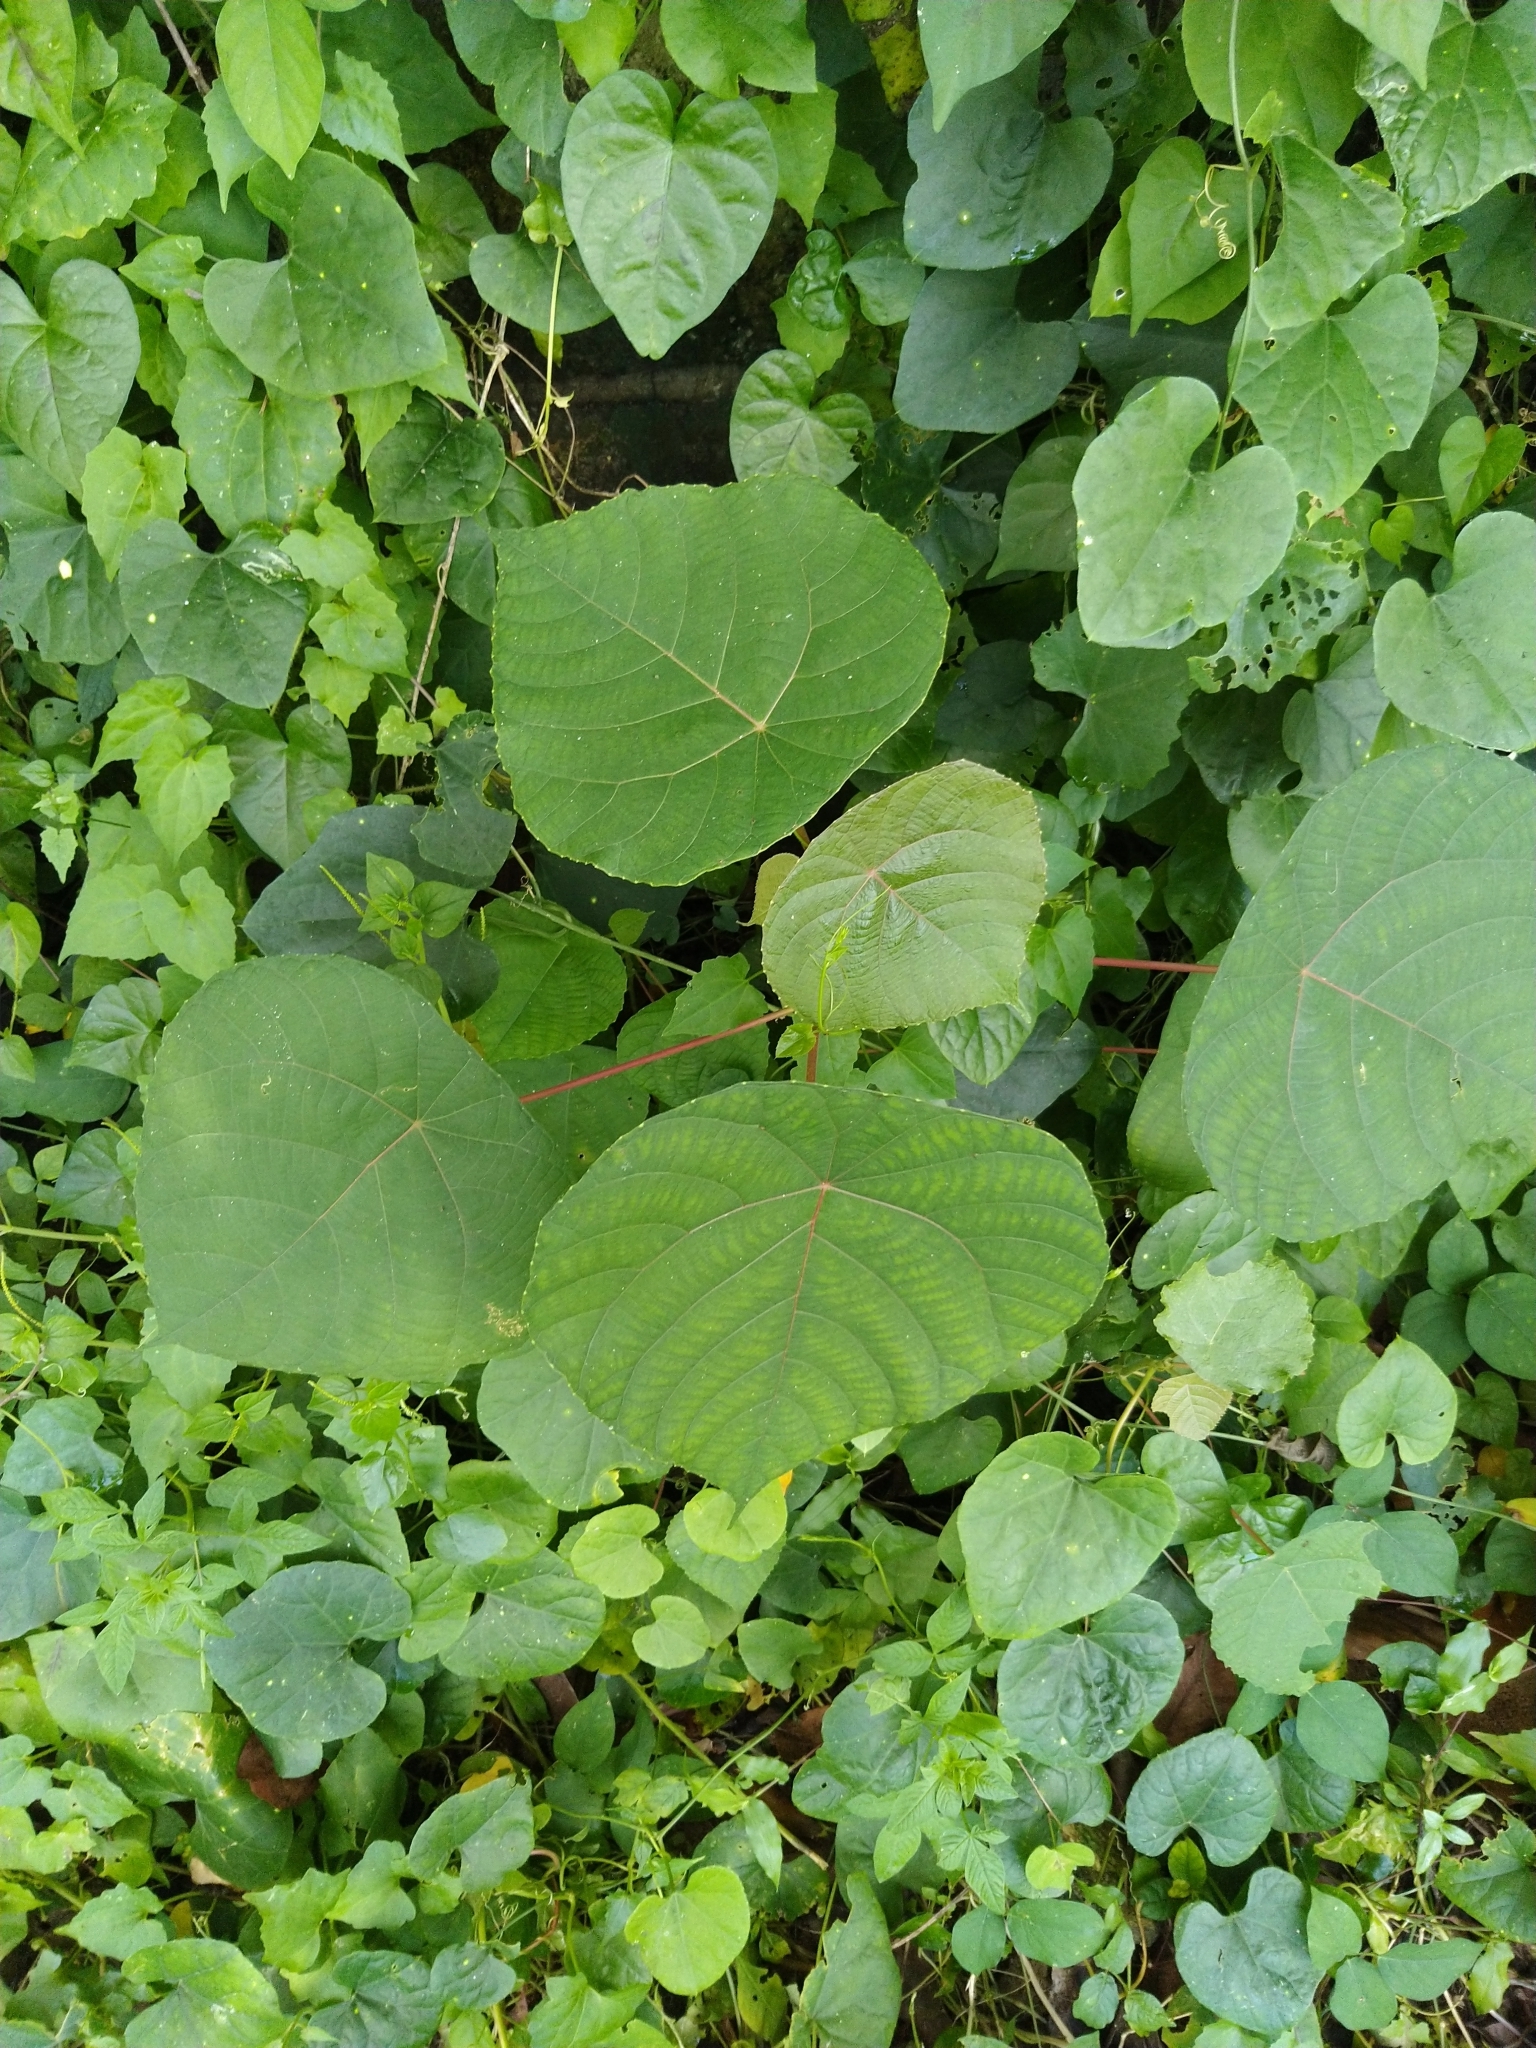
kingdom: Plantae
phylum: Tracheophyta
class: Magnoliopsida
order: Malpighiales
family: Euphorbiaceae
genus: Macaranga
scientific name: Macaranga peltata
